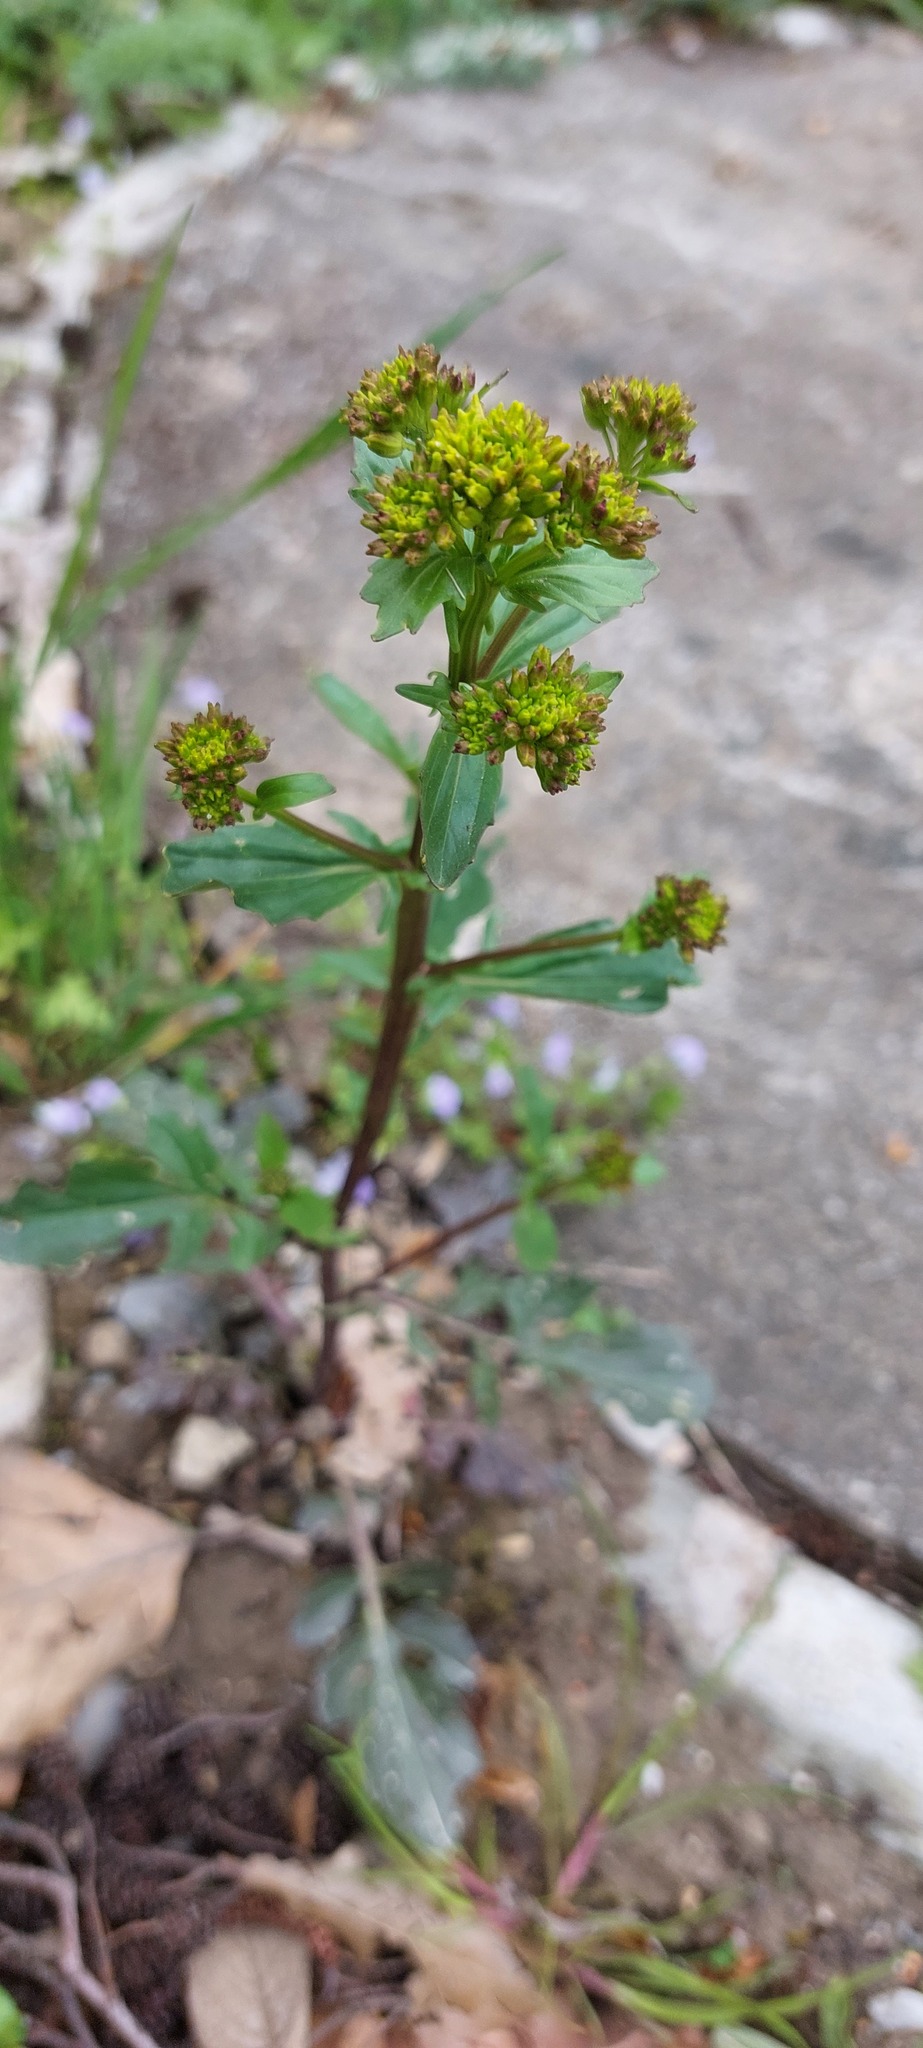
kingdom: Plantae
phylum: Tracheophyta
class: Magnoliopsida
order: Brassicales
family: Brassicaceae
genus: Barbarea
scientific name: Barbarea vulgaris
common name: Cressy-greens
